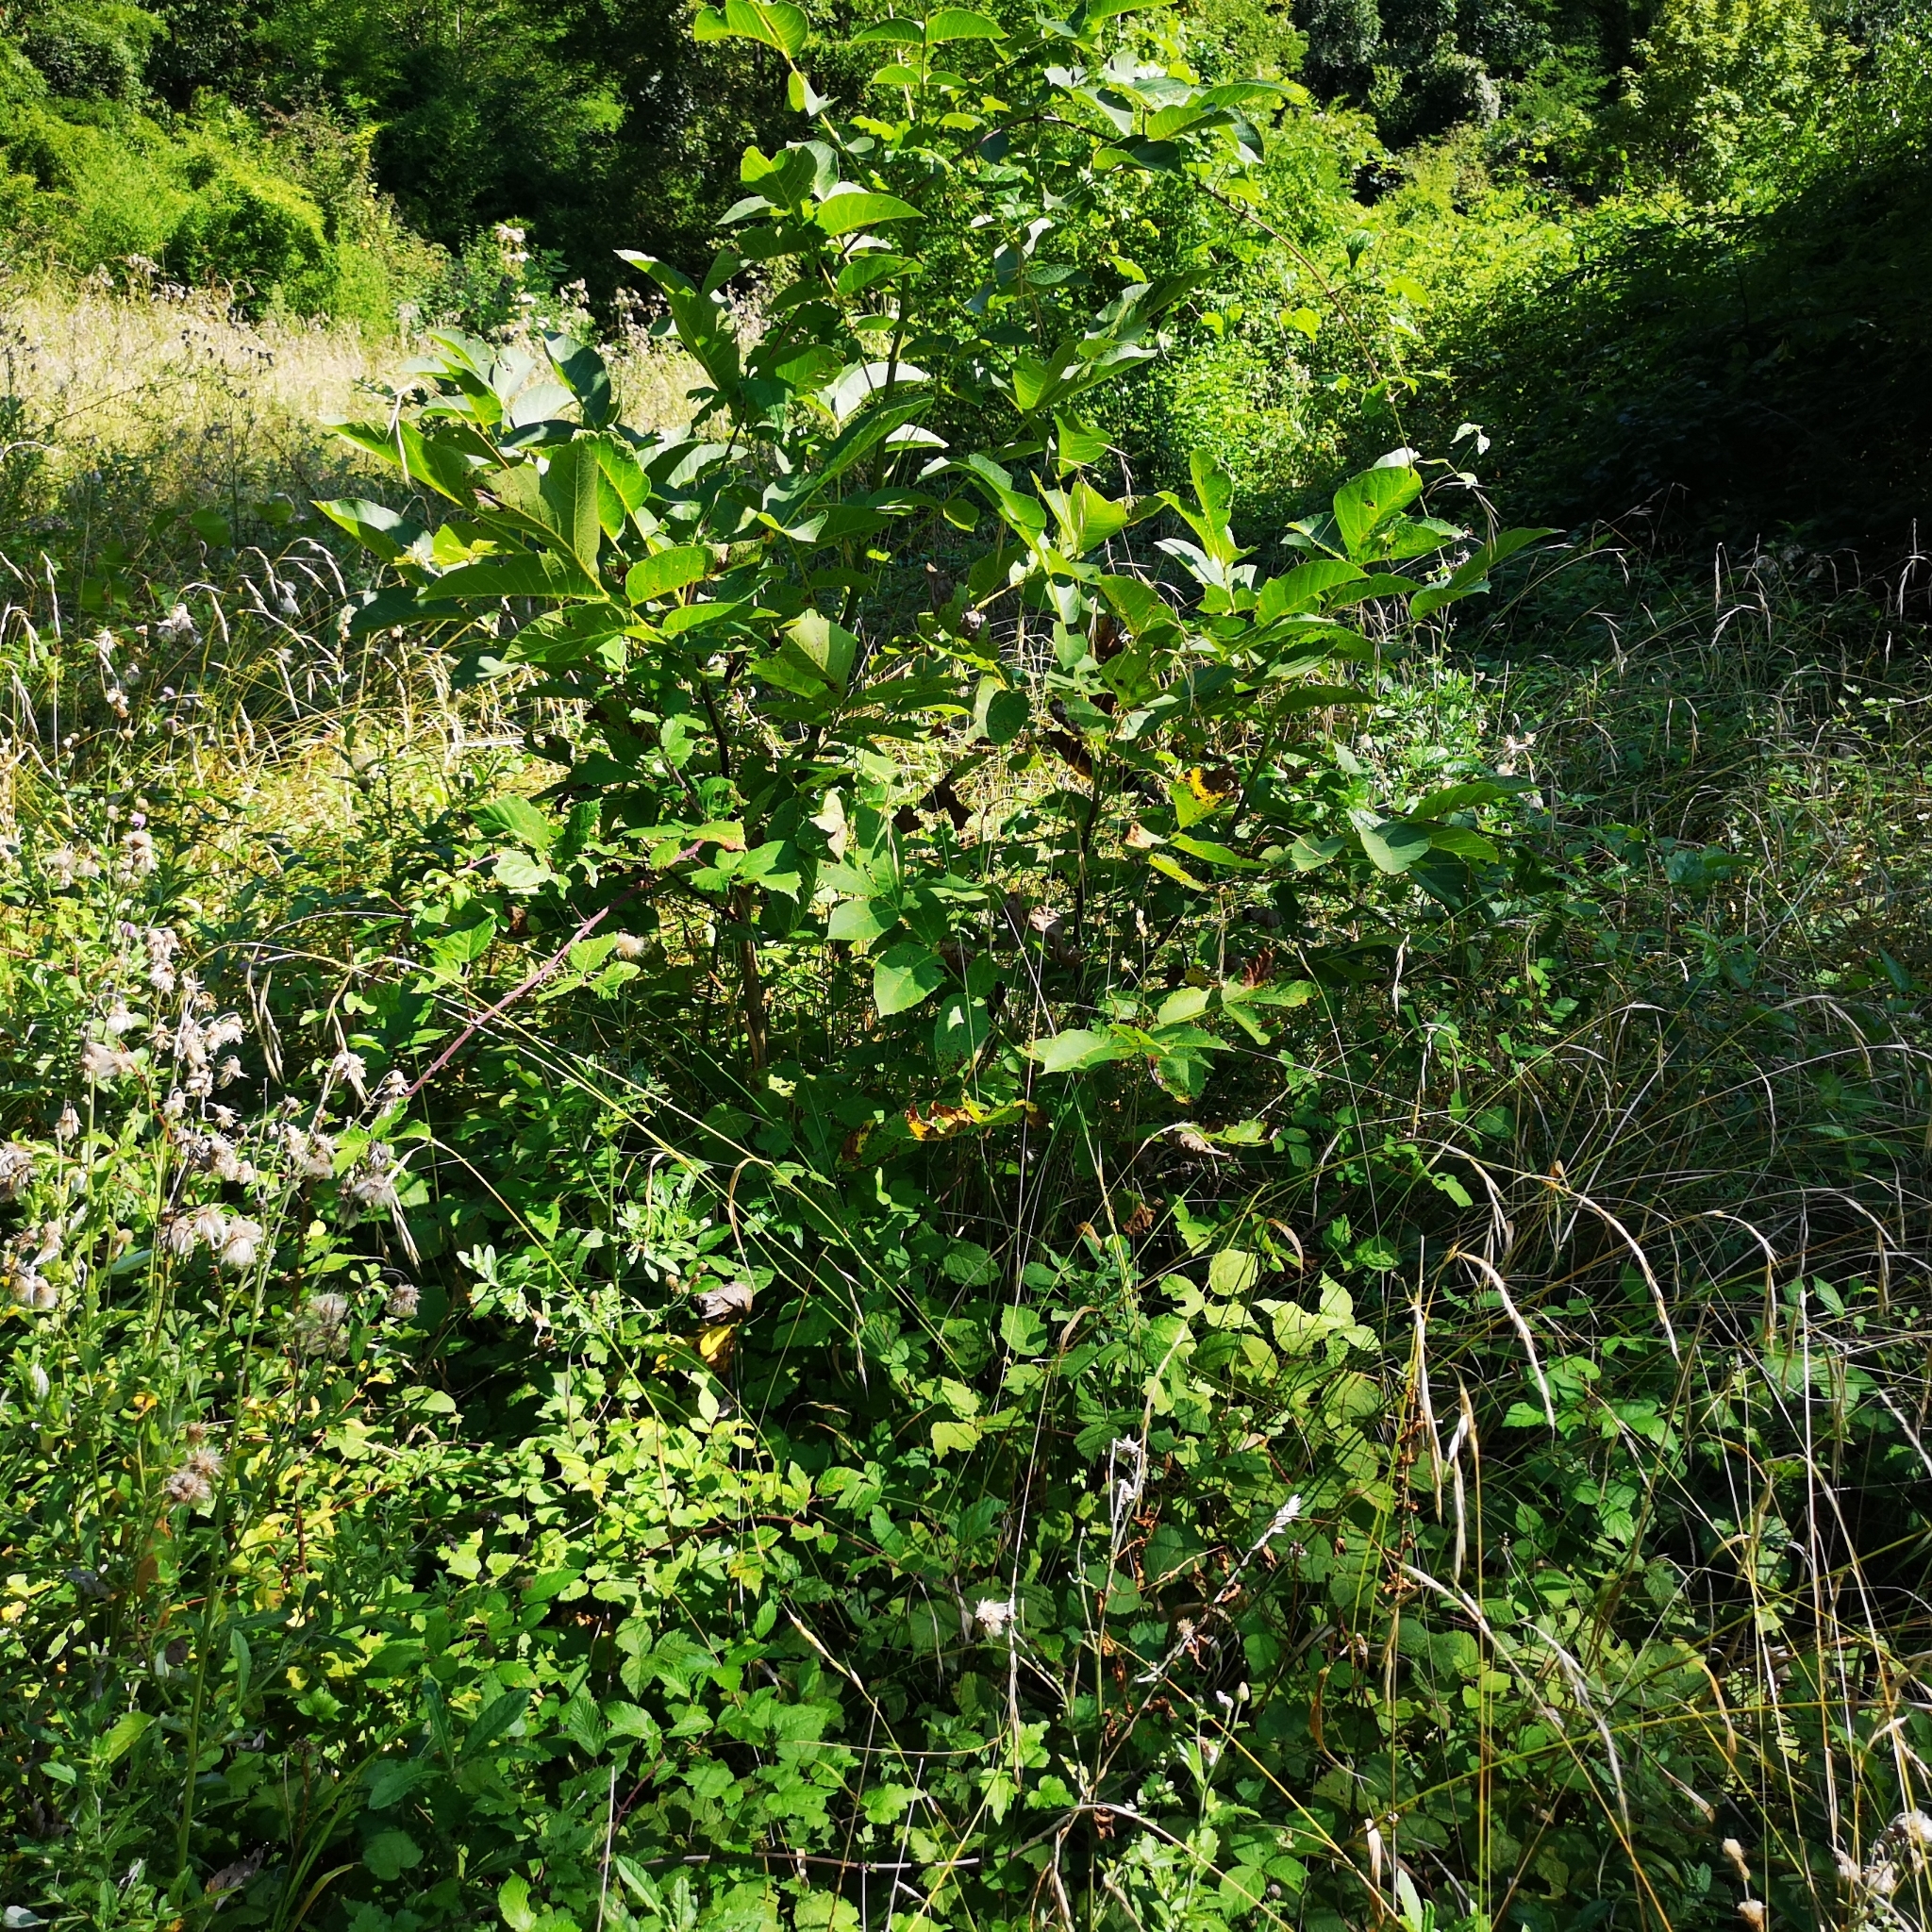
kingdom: Plantae
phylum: Tracheophyta
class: Magnoliopsida
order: Fagales
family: Juglandaceae
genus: Juglans
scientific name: Juglans regia
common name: Walnut
